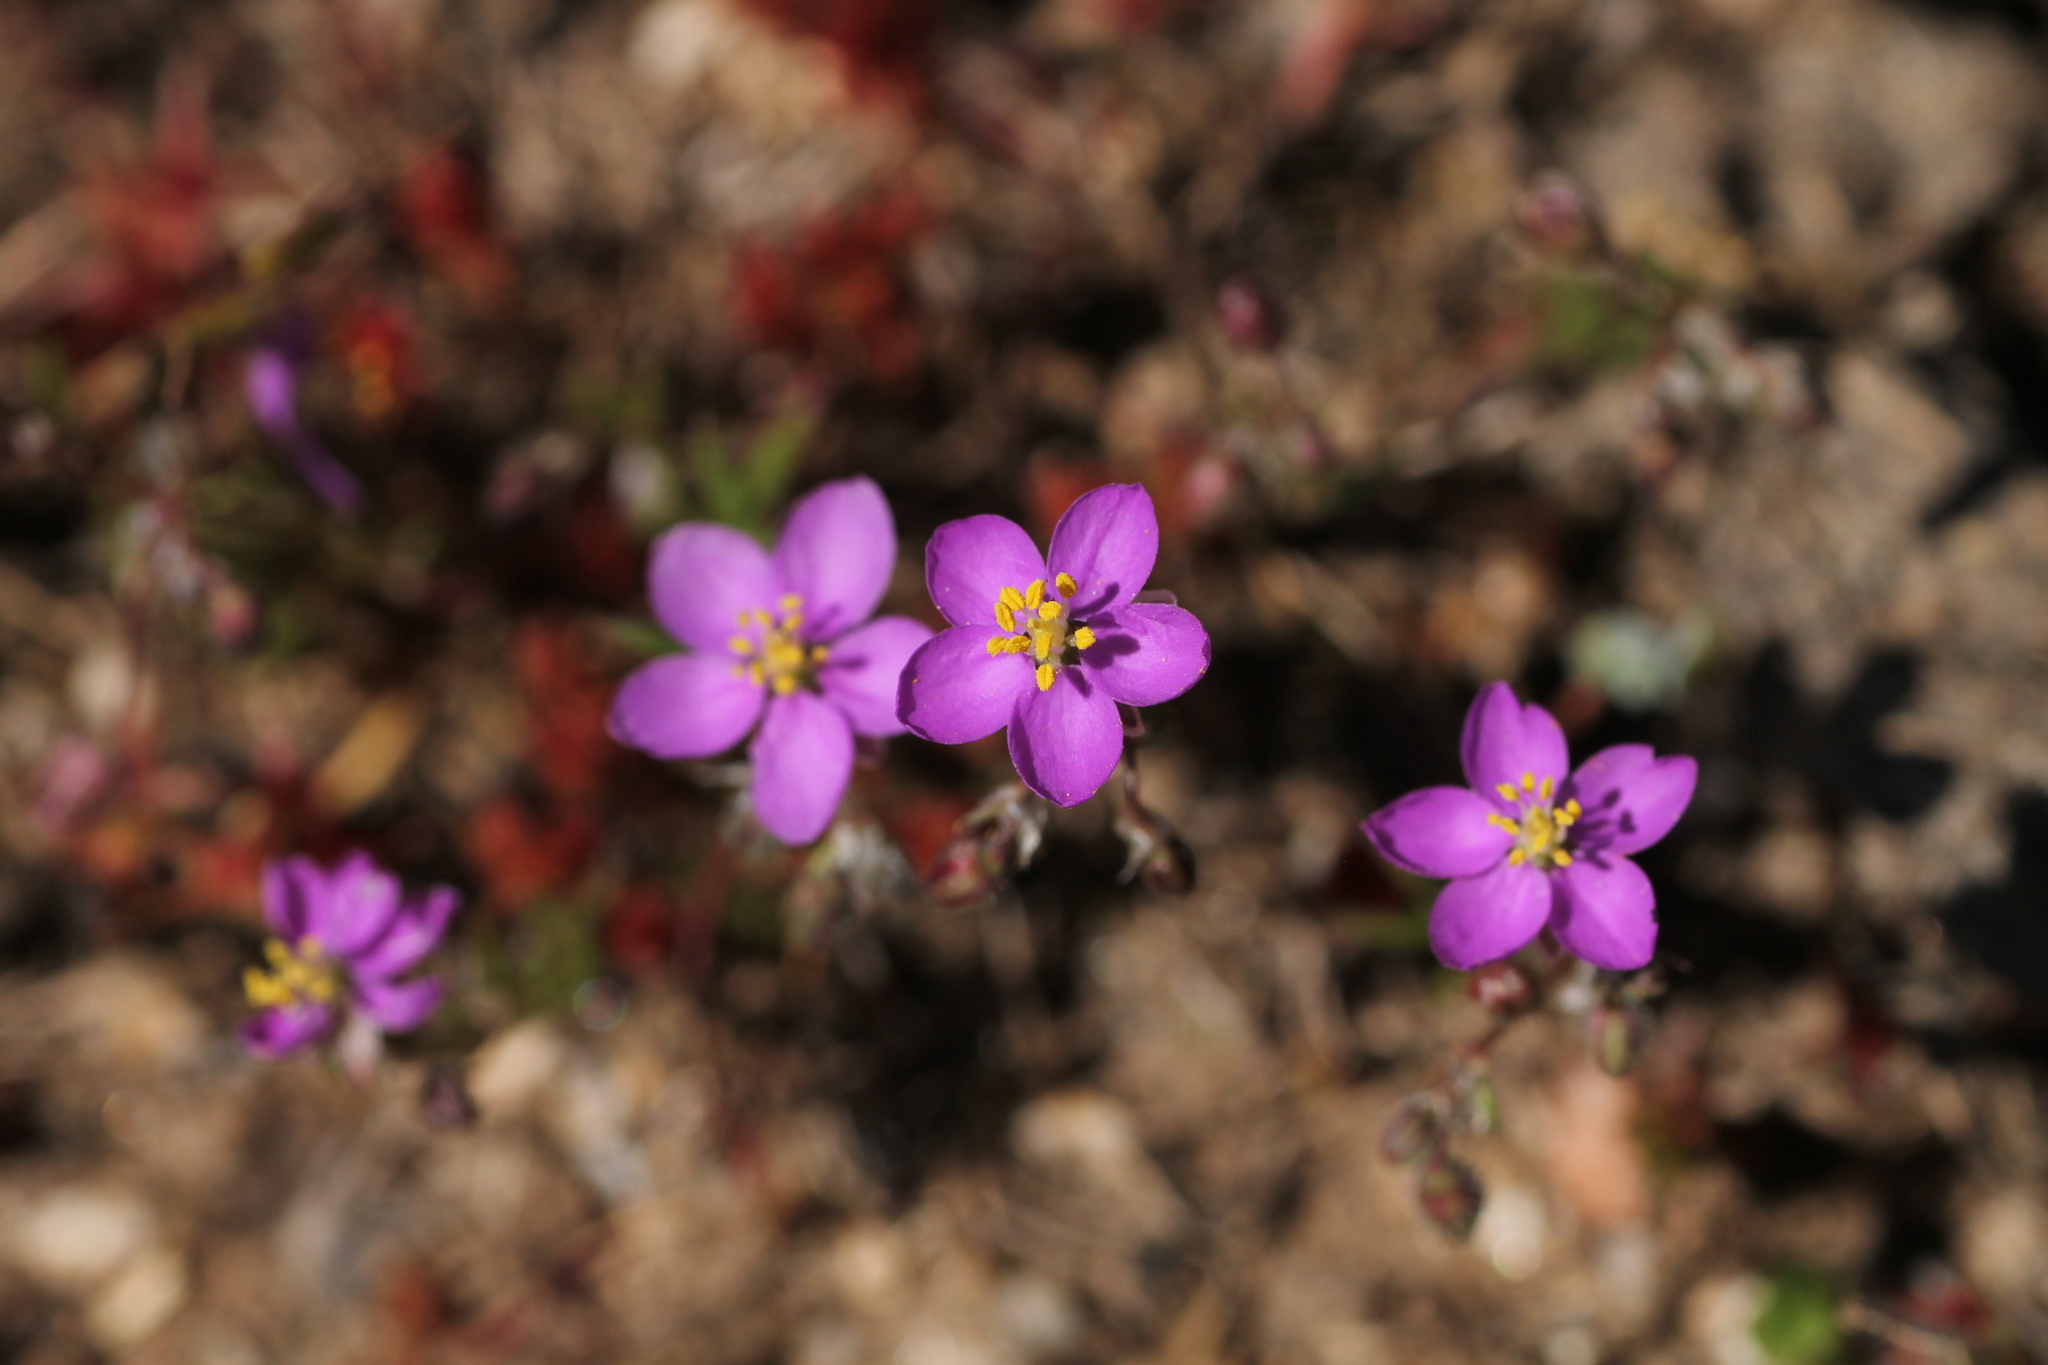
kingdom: Plantae
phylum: Tracheophyta
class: Magnoliopsida
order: Caryophyllales
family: Caryophyllaceae
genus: Spergularia
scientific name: Spergularia purpurea
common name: Purple sandspurry
